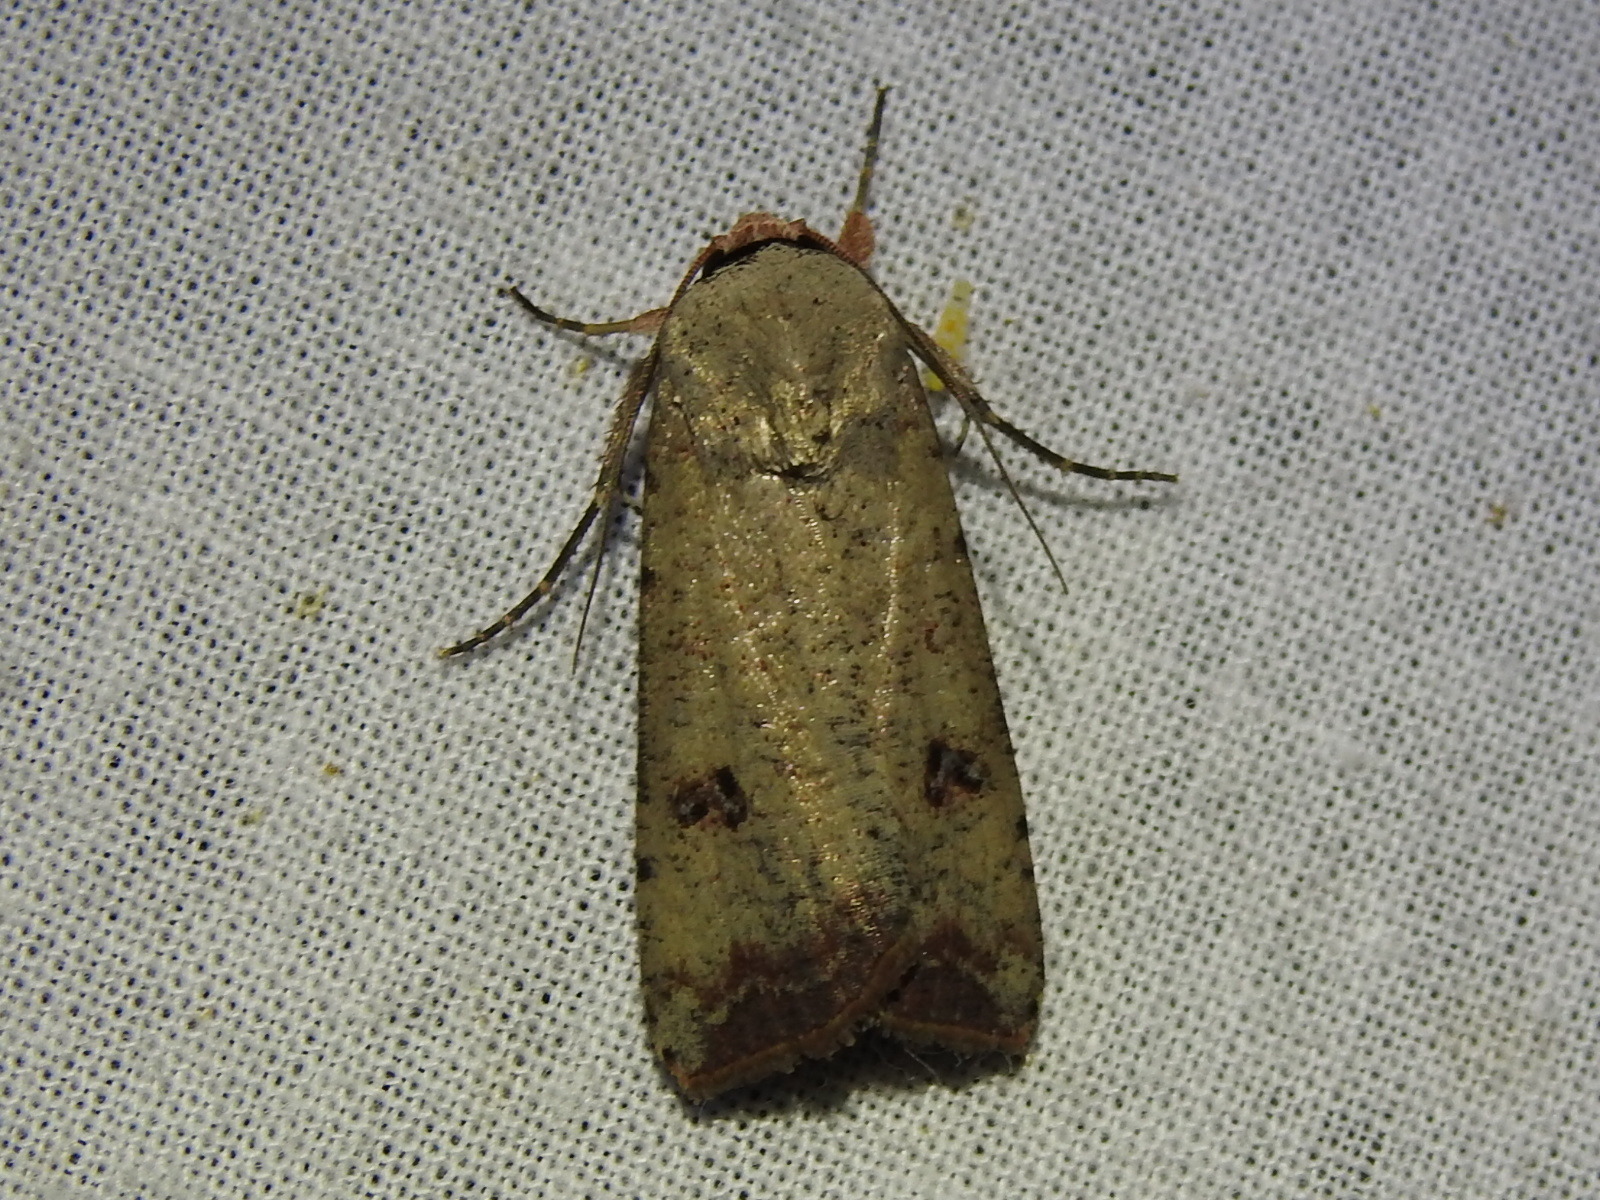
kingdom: Animalia
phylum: Arthropoda
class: Insecta
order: Lepidoptera
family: Noctuidae
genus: Anicla
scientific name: Anicla infecta
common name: Green cutworm
